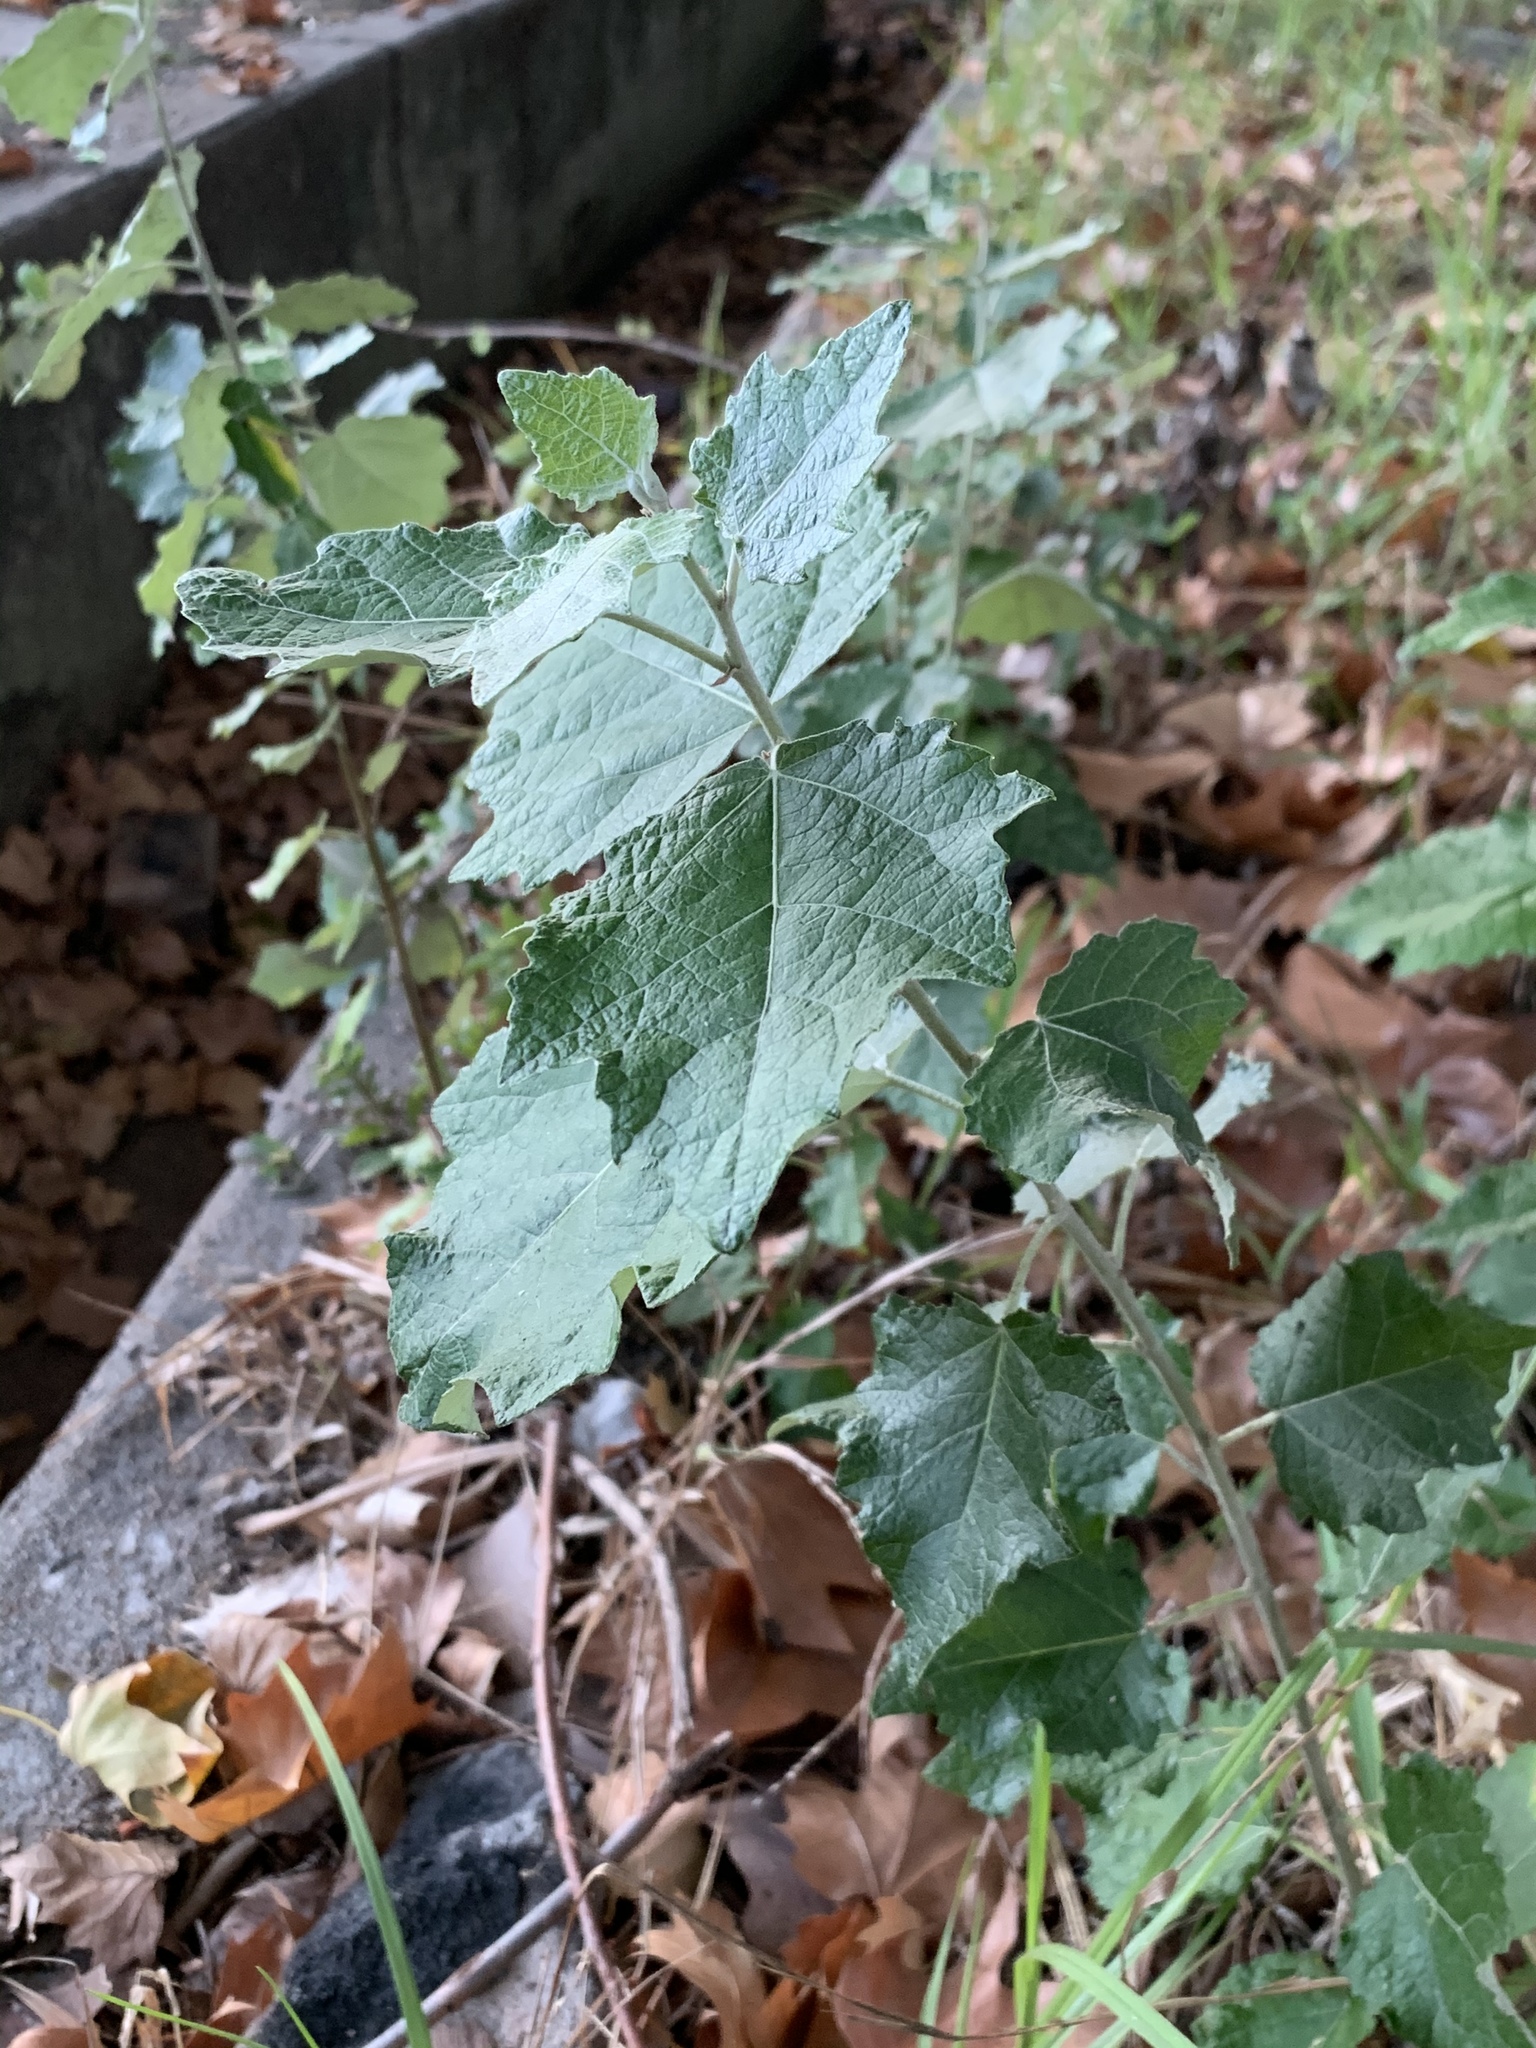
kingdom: Plantae
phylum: Tracheophyta
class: Magnoliopsida
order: Malpighiales
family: Salicaceae
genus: Populus
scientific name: Populus canescens
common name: Gray poplar
